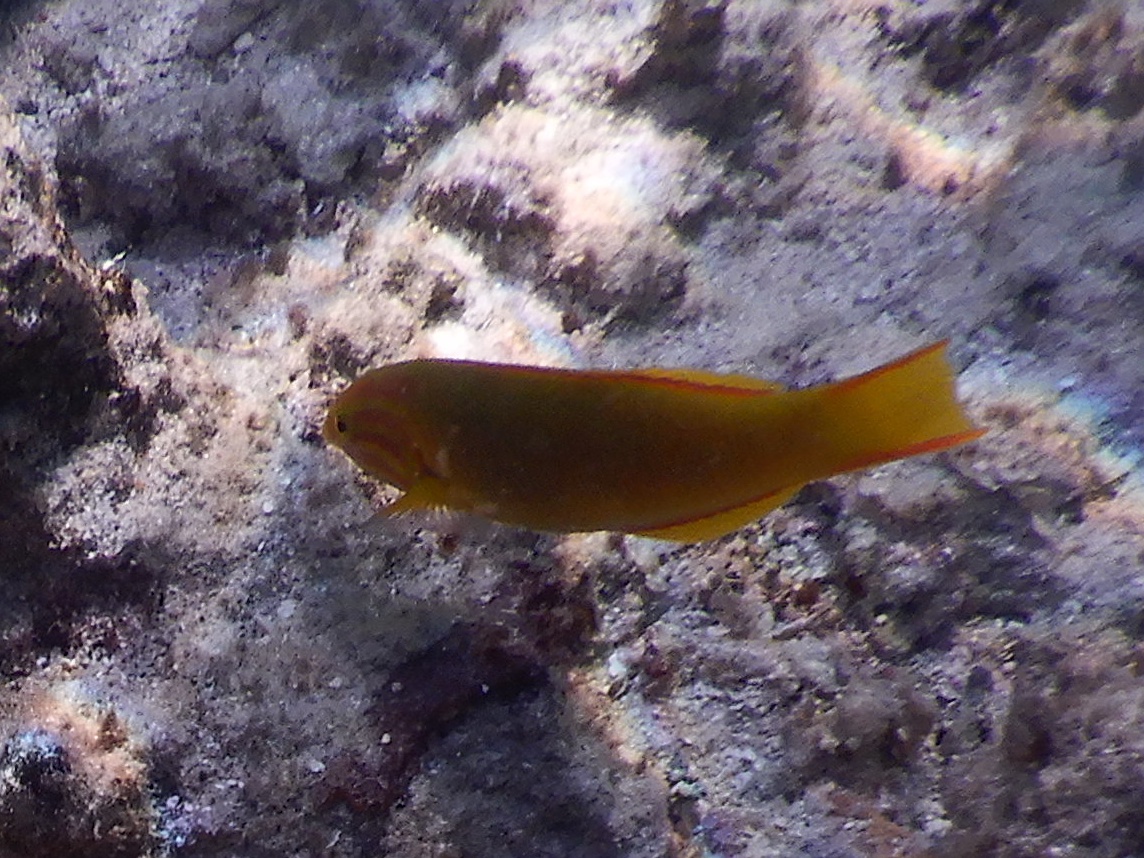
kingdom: Animalia
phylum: Chordata
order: Perciformes
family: Labridae
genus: Thalassoma
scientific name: Thalassoma lutescens
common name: Green moon wrasse
